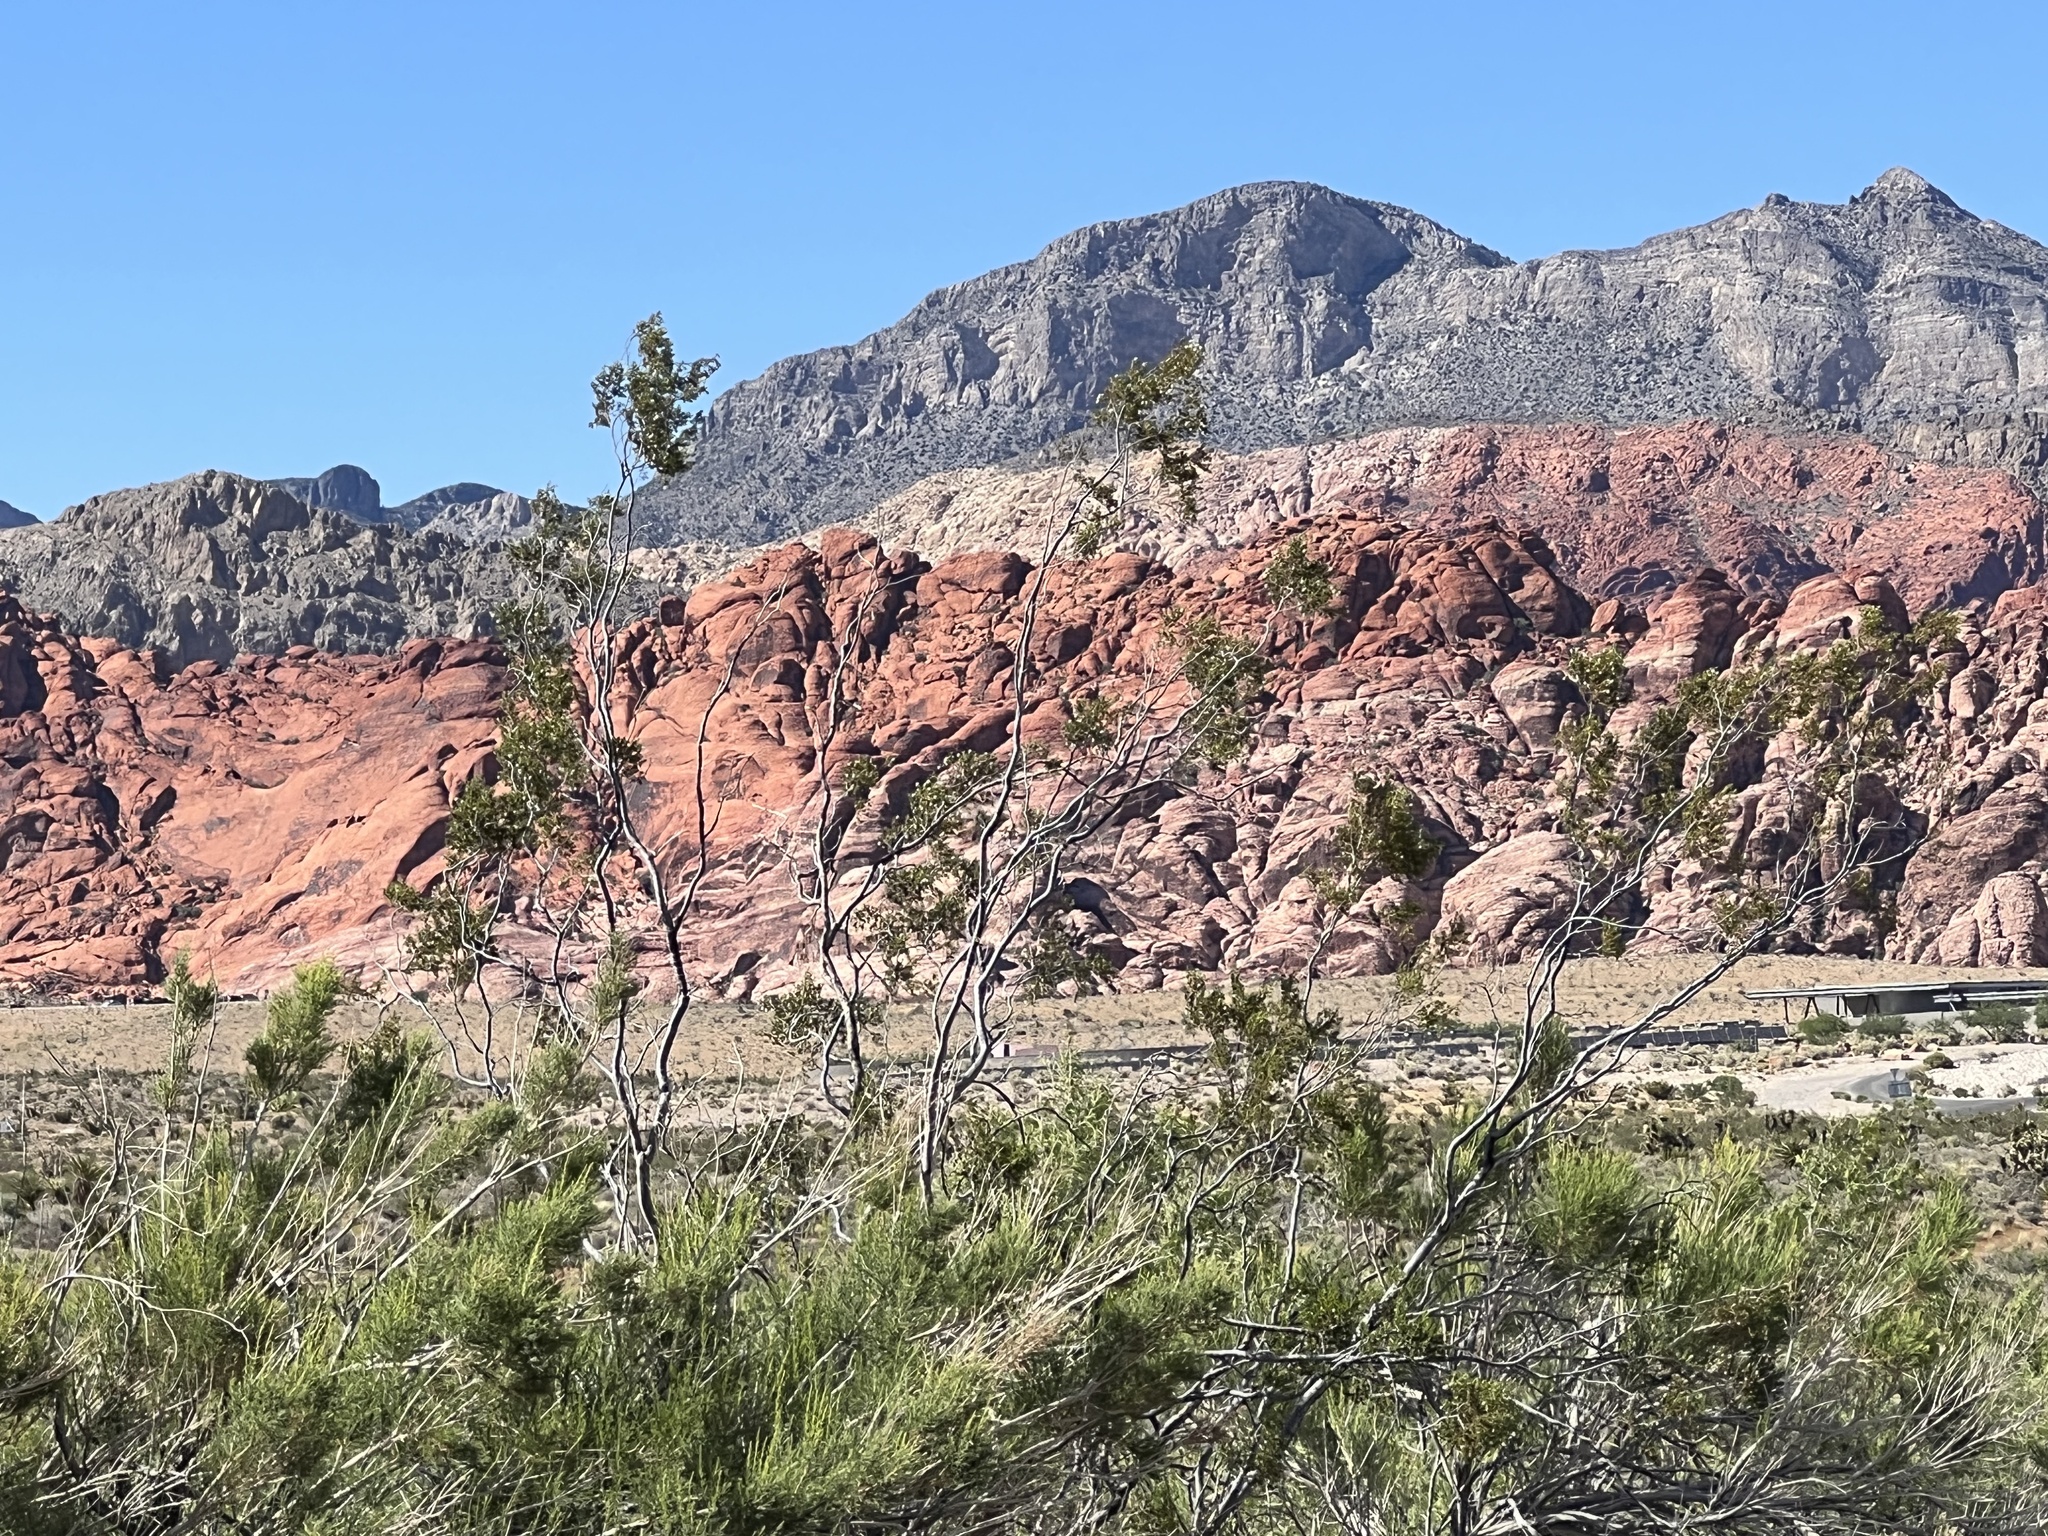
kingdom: Plantae
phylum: Tracheophyta
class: Magnoliopsida
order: Zygophyllales
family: Zygophyllaceae
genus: Larrea
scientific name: Larrea tridentata
